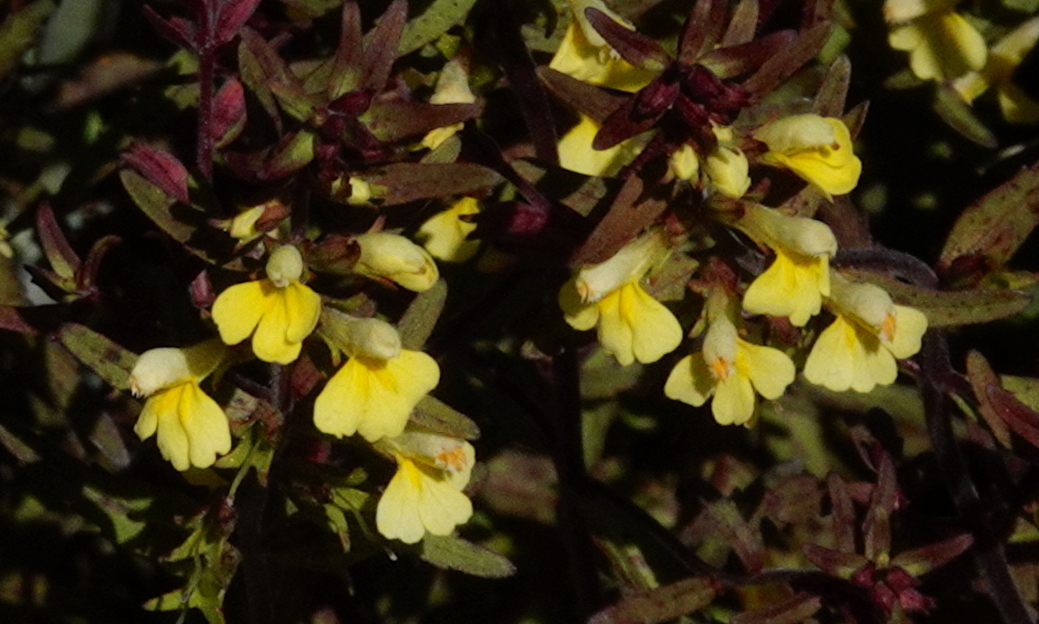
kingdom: Plantae
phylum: Tracheophyta
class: Magnoliopsida
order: Lamiales
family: Orobanchaceae
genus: Odontites
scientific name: Odontites hollianus
